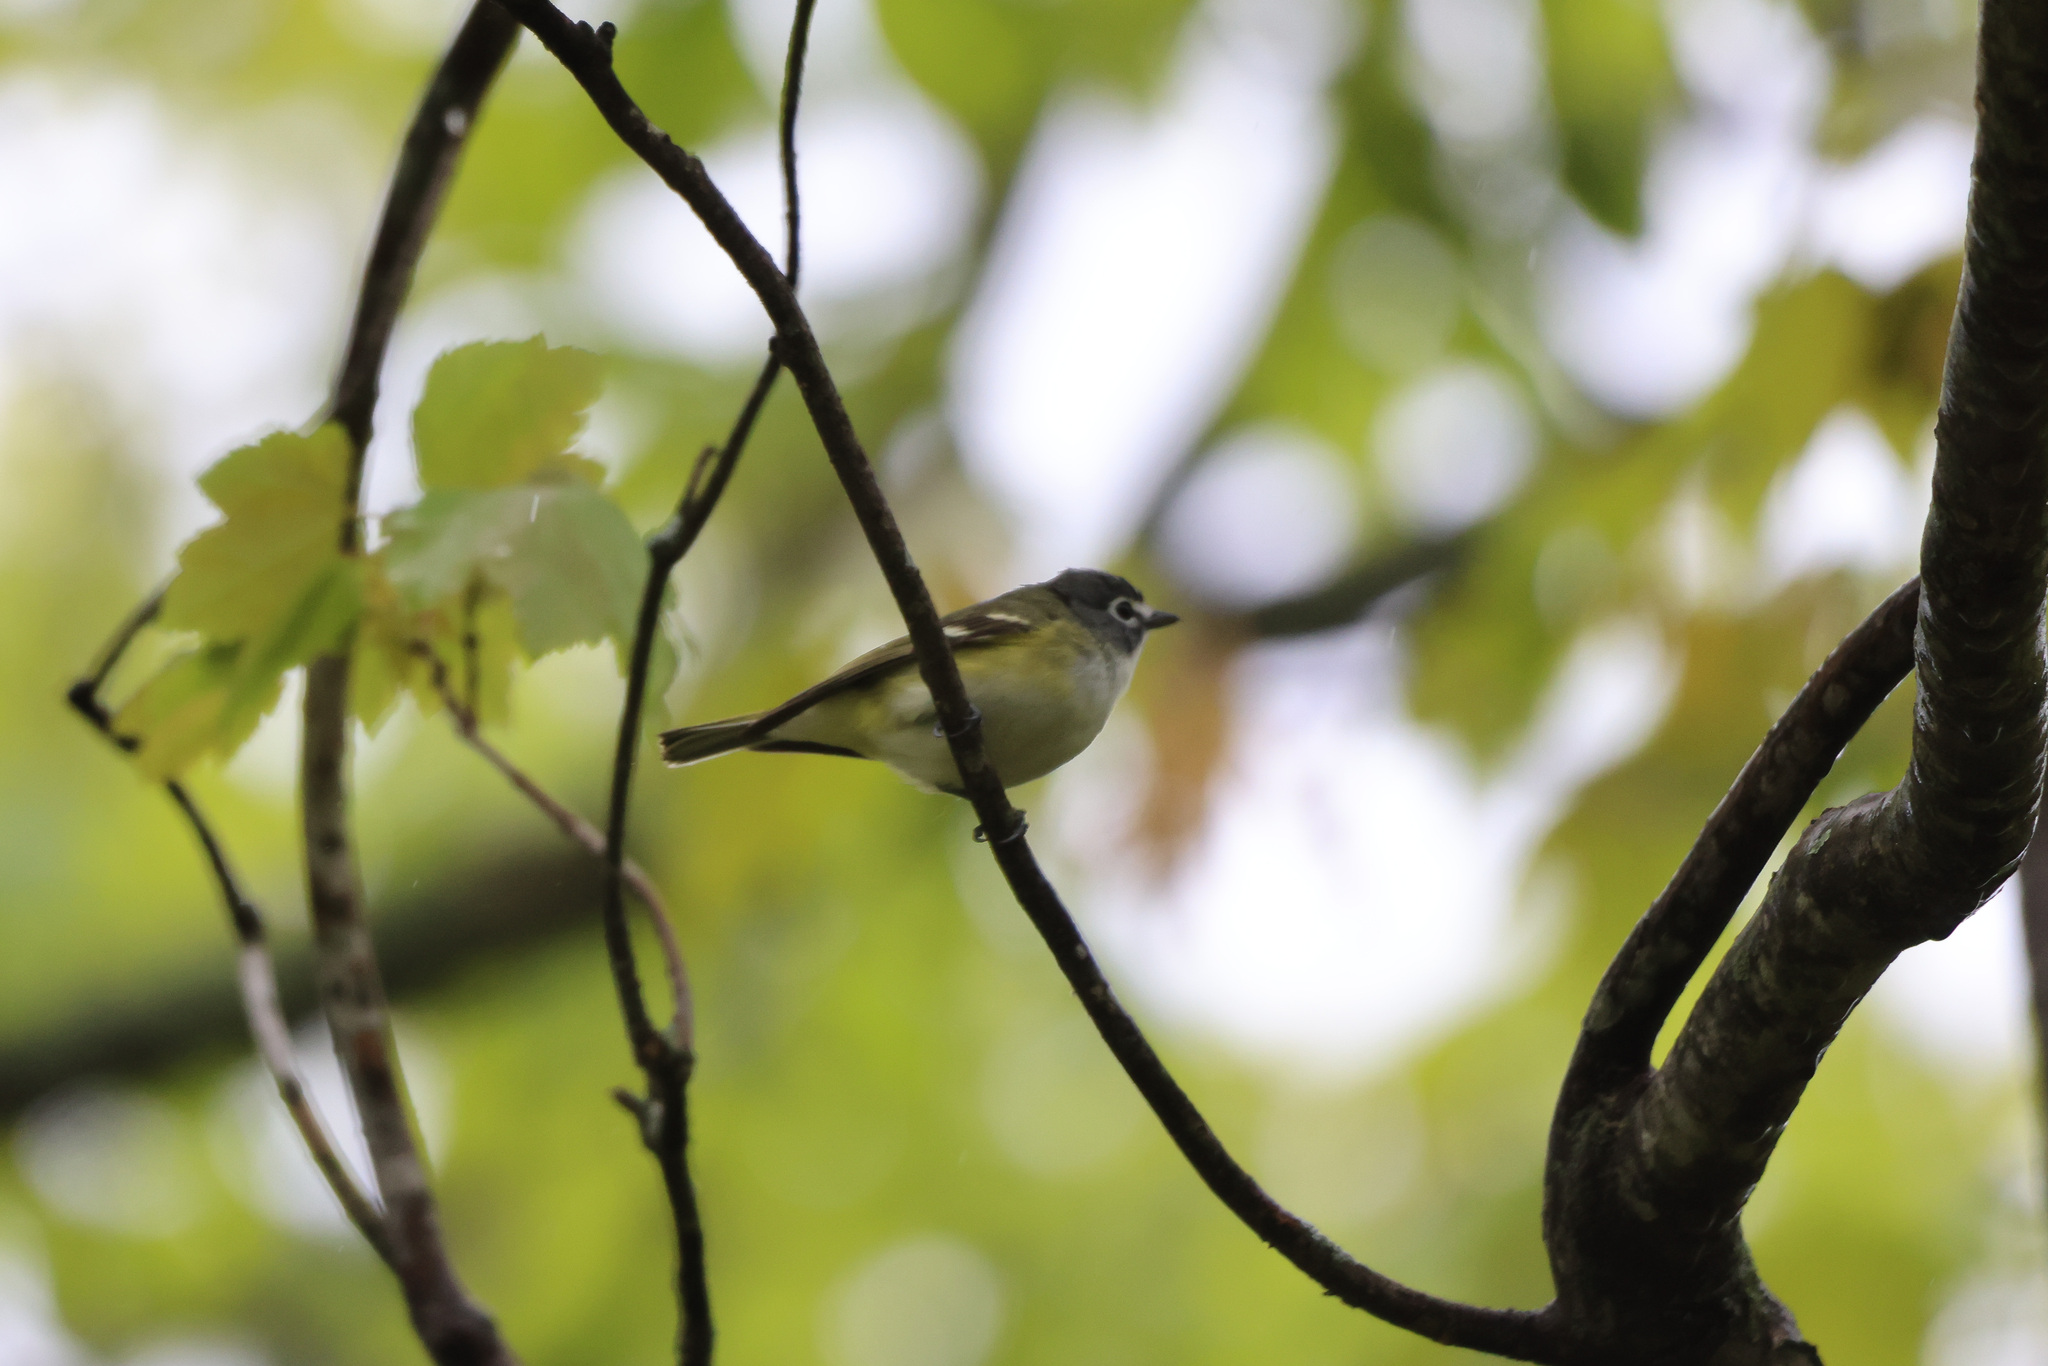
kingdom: Animalia
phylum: Chordata
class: Aves
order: Passeriformes
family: Vireonidae
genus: Vireo
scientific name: Vireo solitarius
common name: Blue-headed vireo
